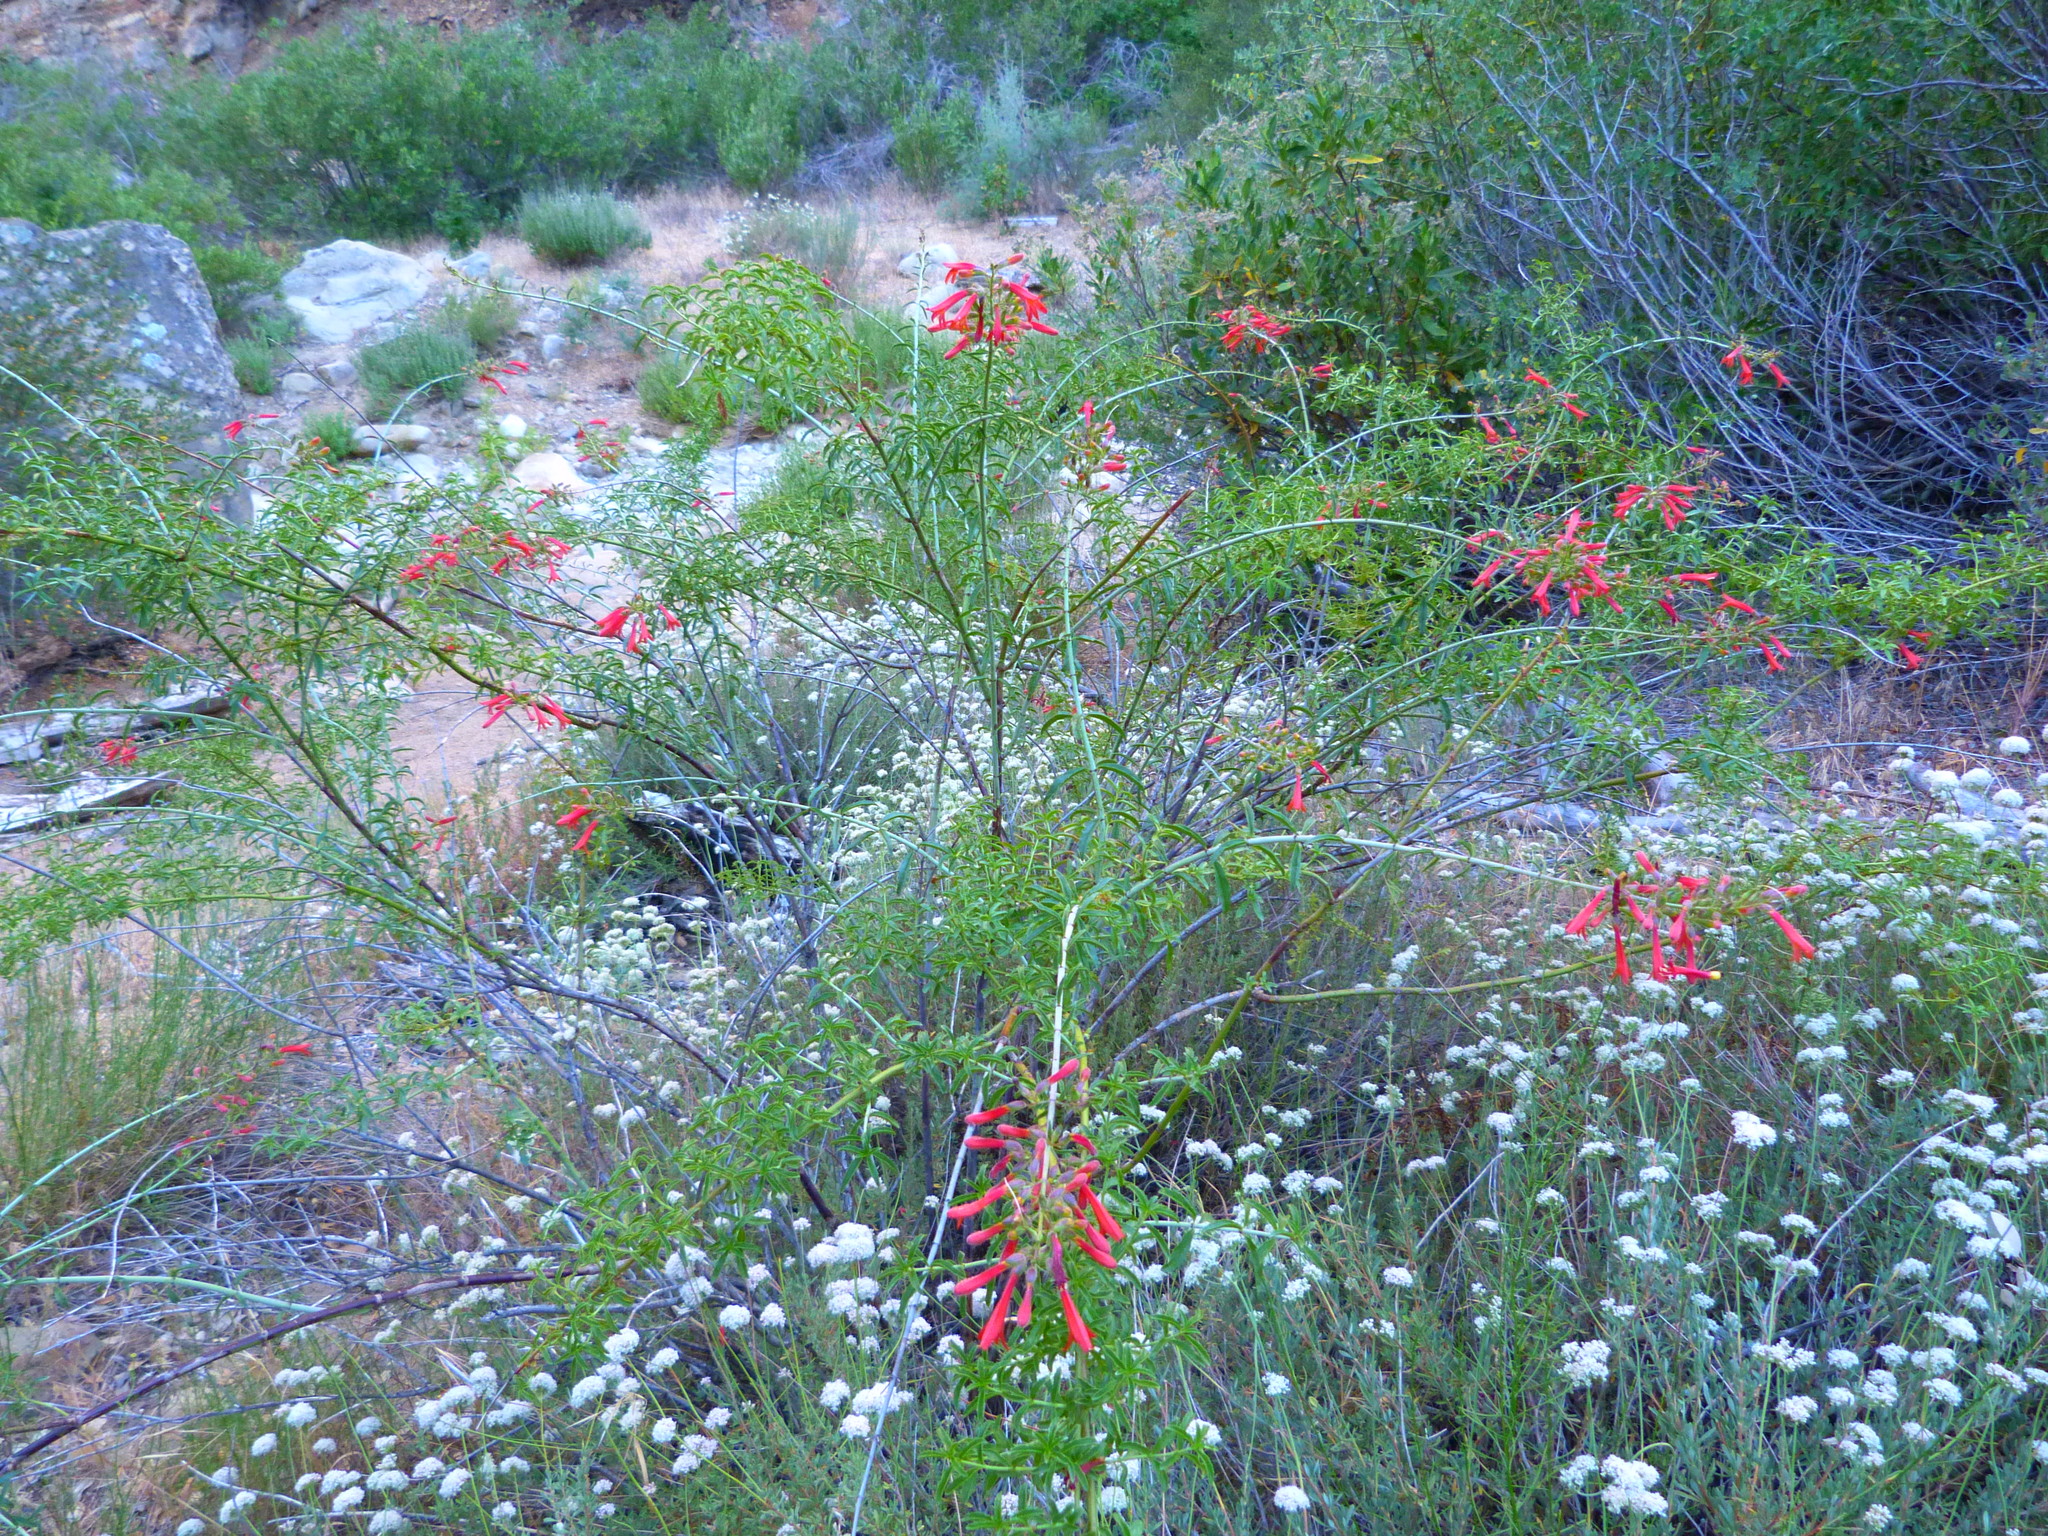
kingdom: Plantae
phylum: Tracheophyta
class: Magnoliopsida
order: Lamiales
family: Plantaginaceae
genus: Keckiella
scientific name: Keckiella ternata
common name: Scarlet keckiella
